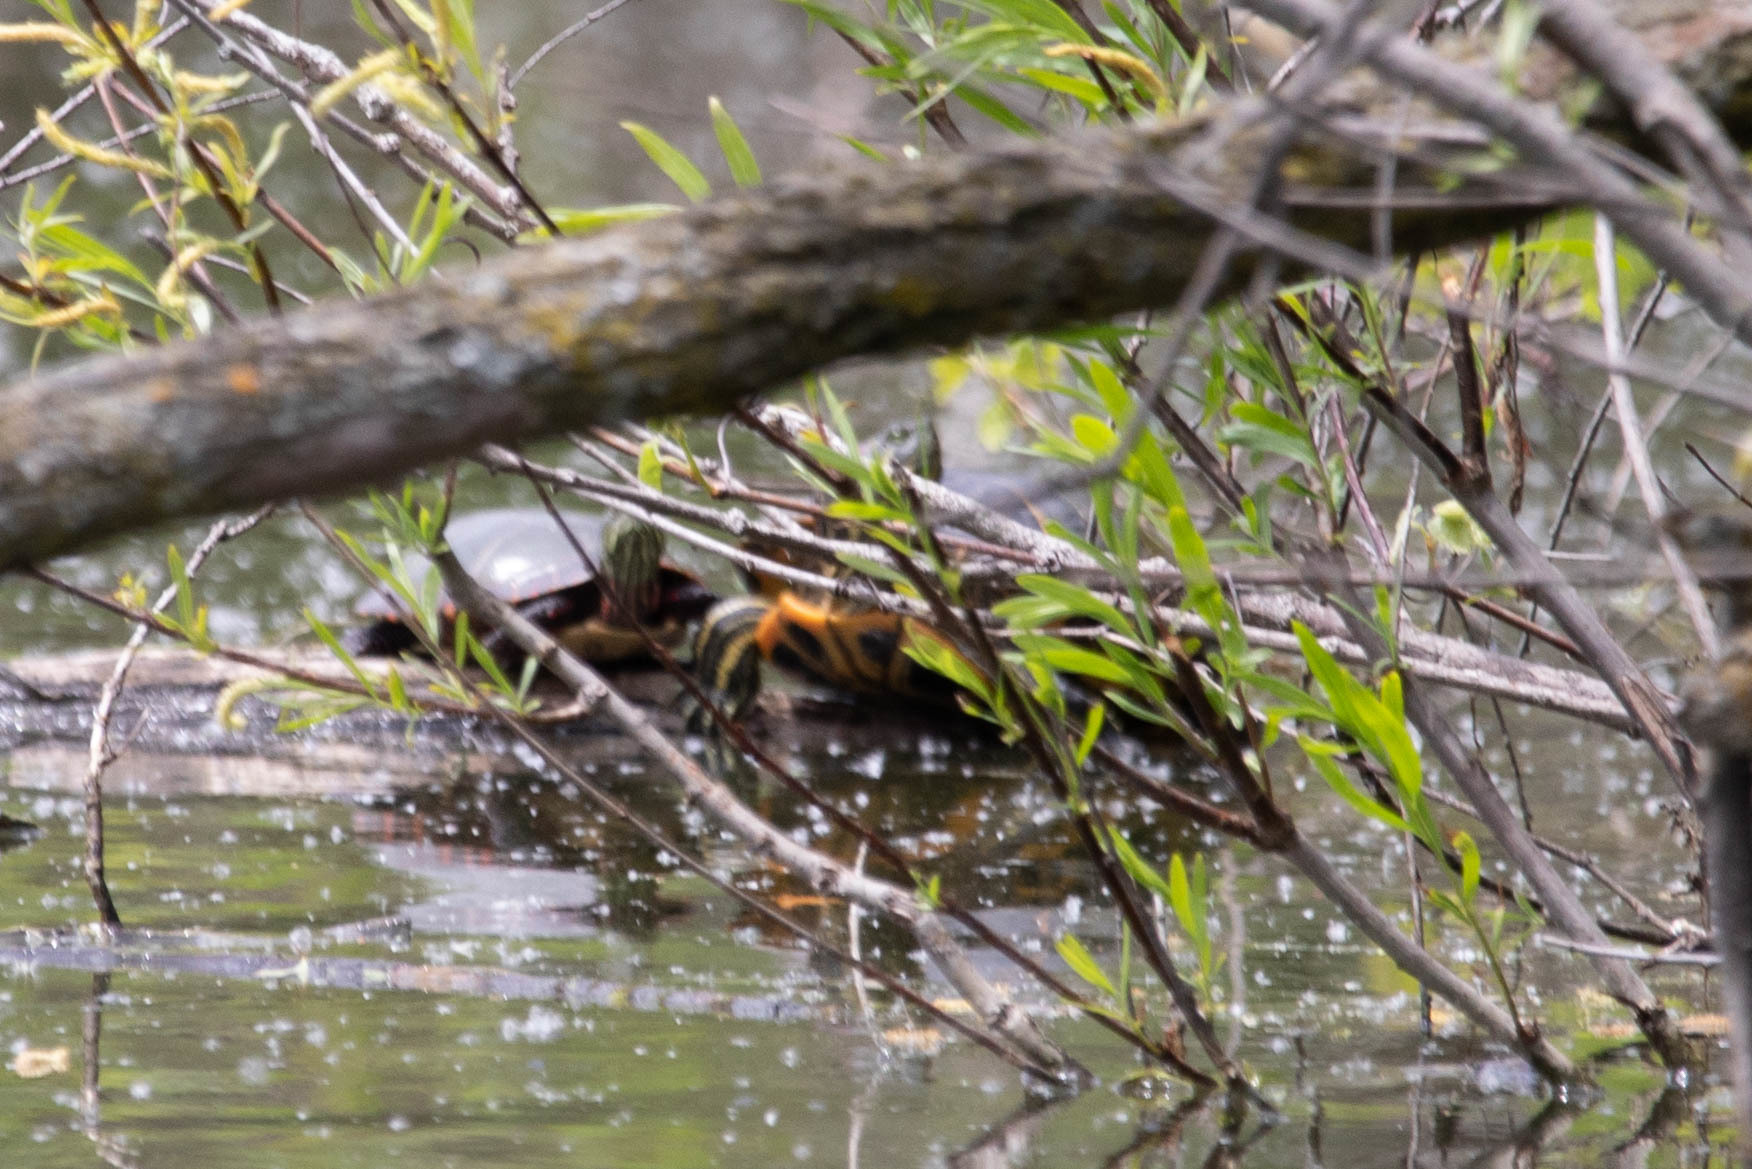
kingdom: Animalia
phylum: Chordata
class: Testudines
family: Emydidae
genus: Trachemys
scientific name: Trachemys scripta
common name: Slider
